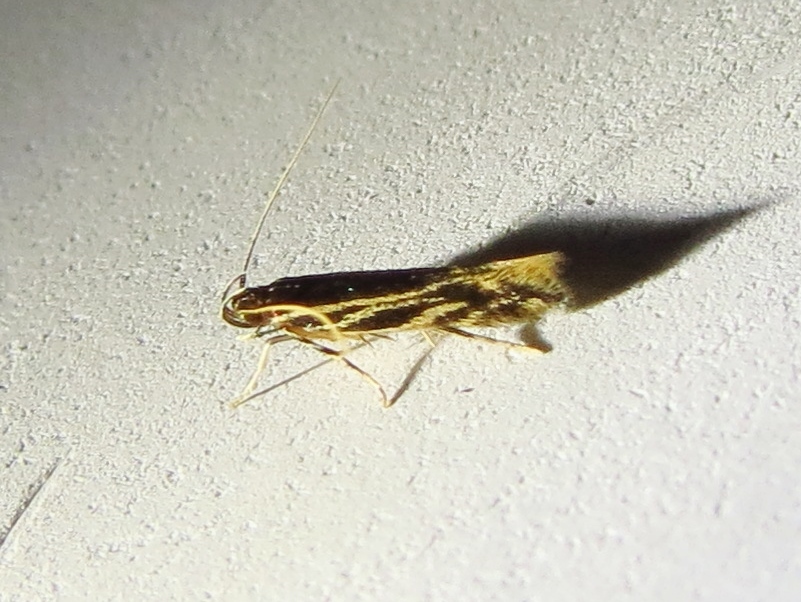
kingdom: Animalia
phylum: Arthropoda
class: Insecta
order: Lepidoptera
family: Cosmopterigidae
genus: Eralea
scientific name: Eralea albalineella
